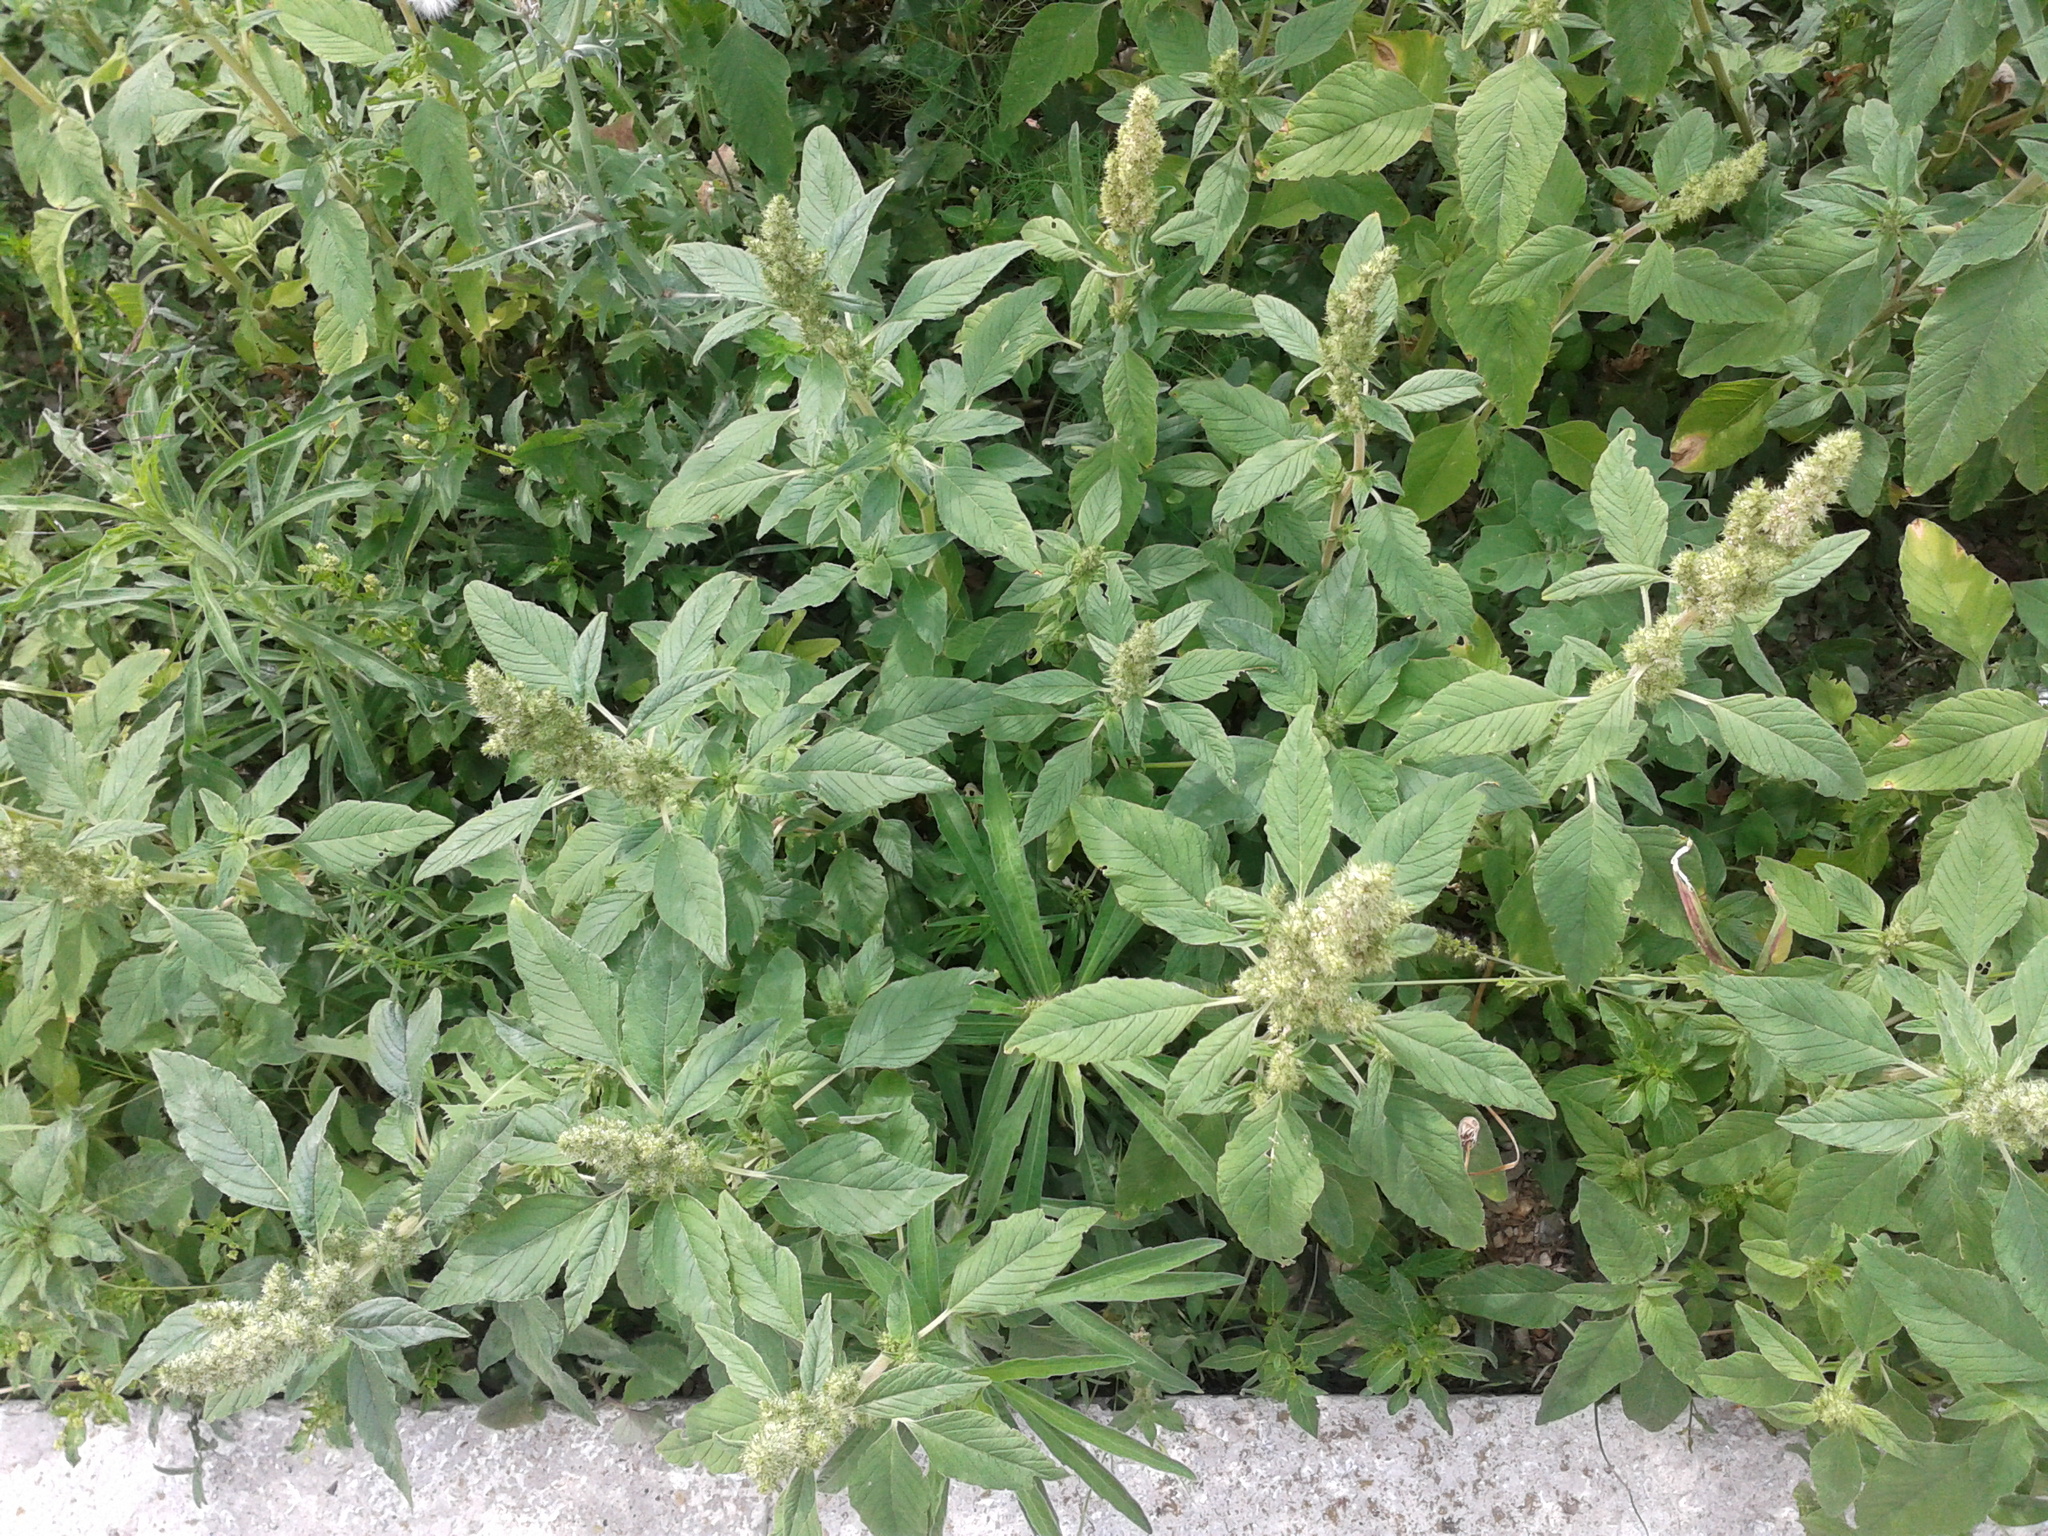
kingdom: Plantae
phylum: Tracheophyta
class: Magnoliopsida
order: Caryophyllales
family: Amaranthaceae
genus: Amaranthus
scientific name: Amaranthus retroflexus
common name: Redroot amaranth
